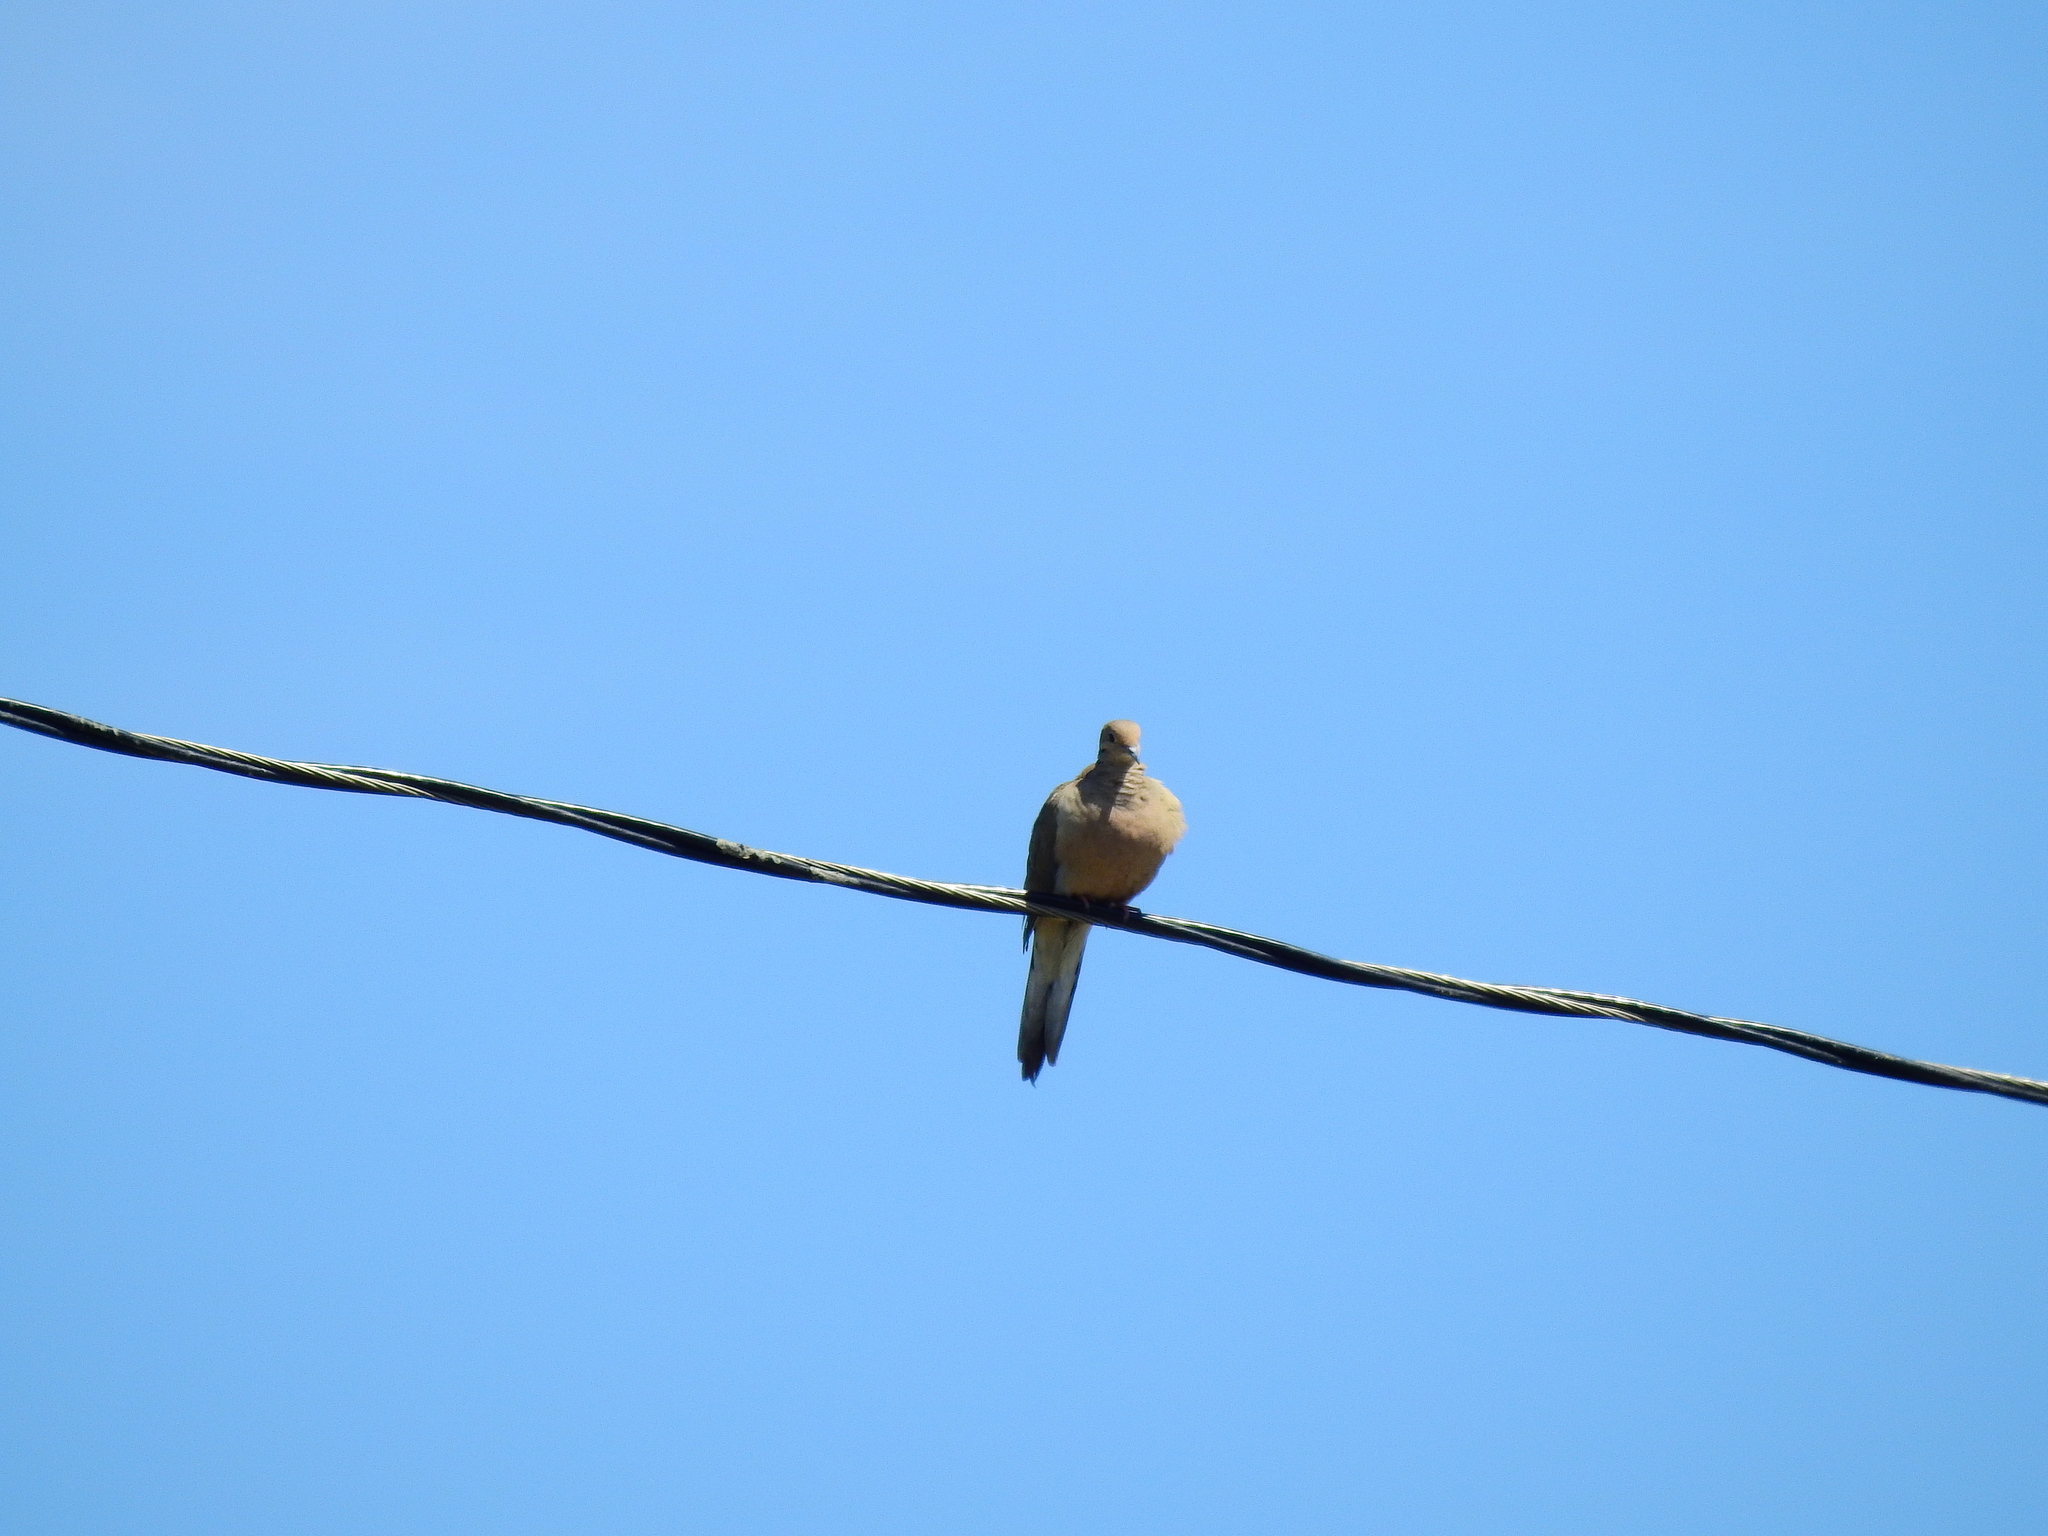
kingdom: Animalia
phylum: Chordata
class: Aves
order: Columbiformes
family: Columbidae
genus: Zenaida
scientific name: Zenaida macroura
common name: Mourning dove
